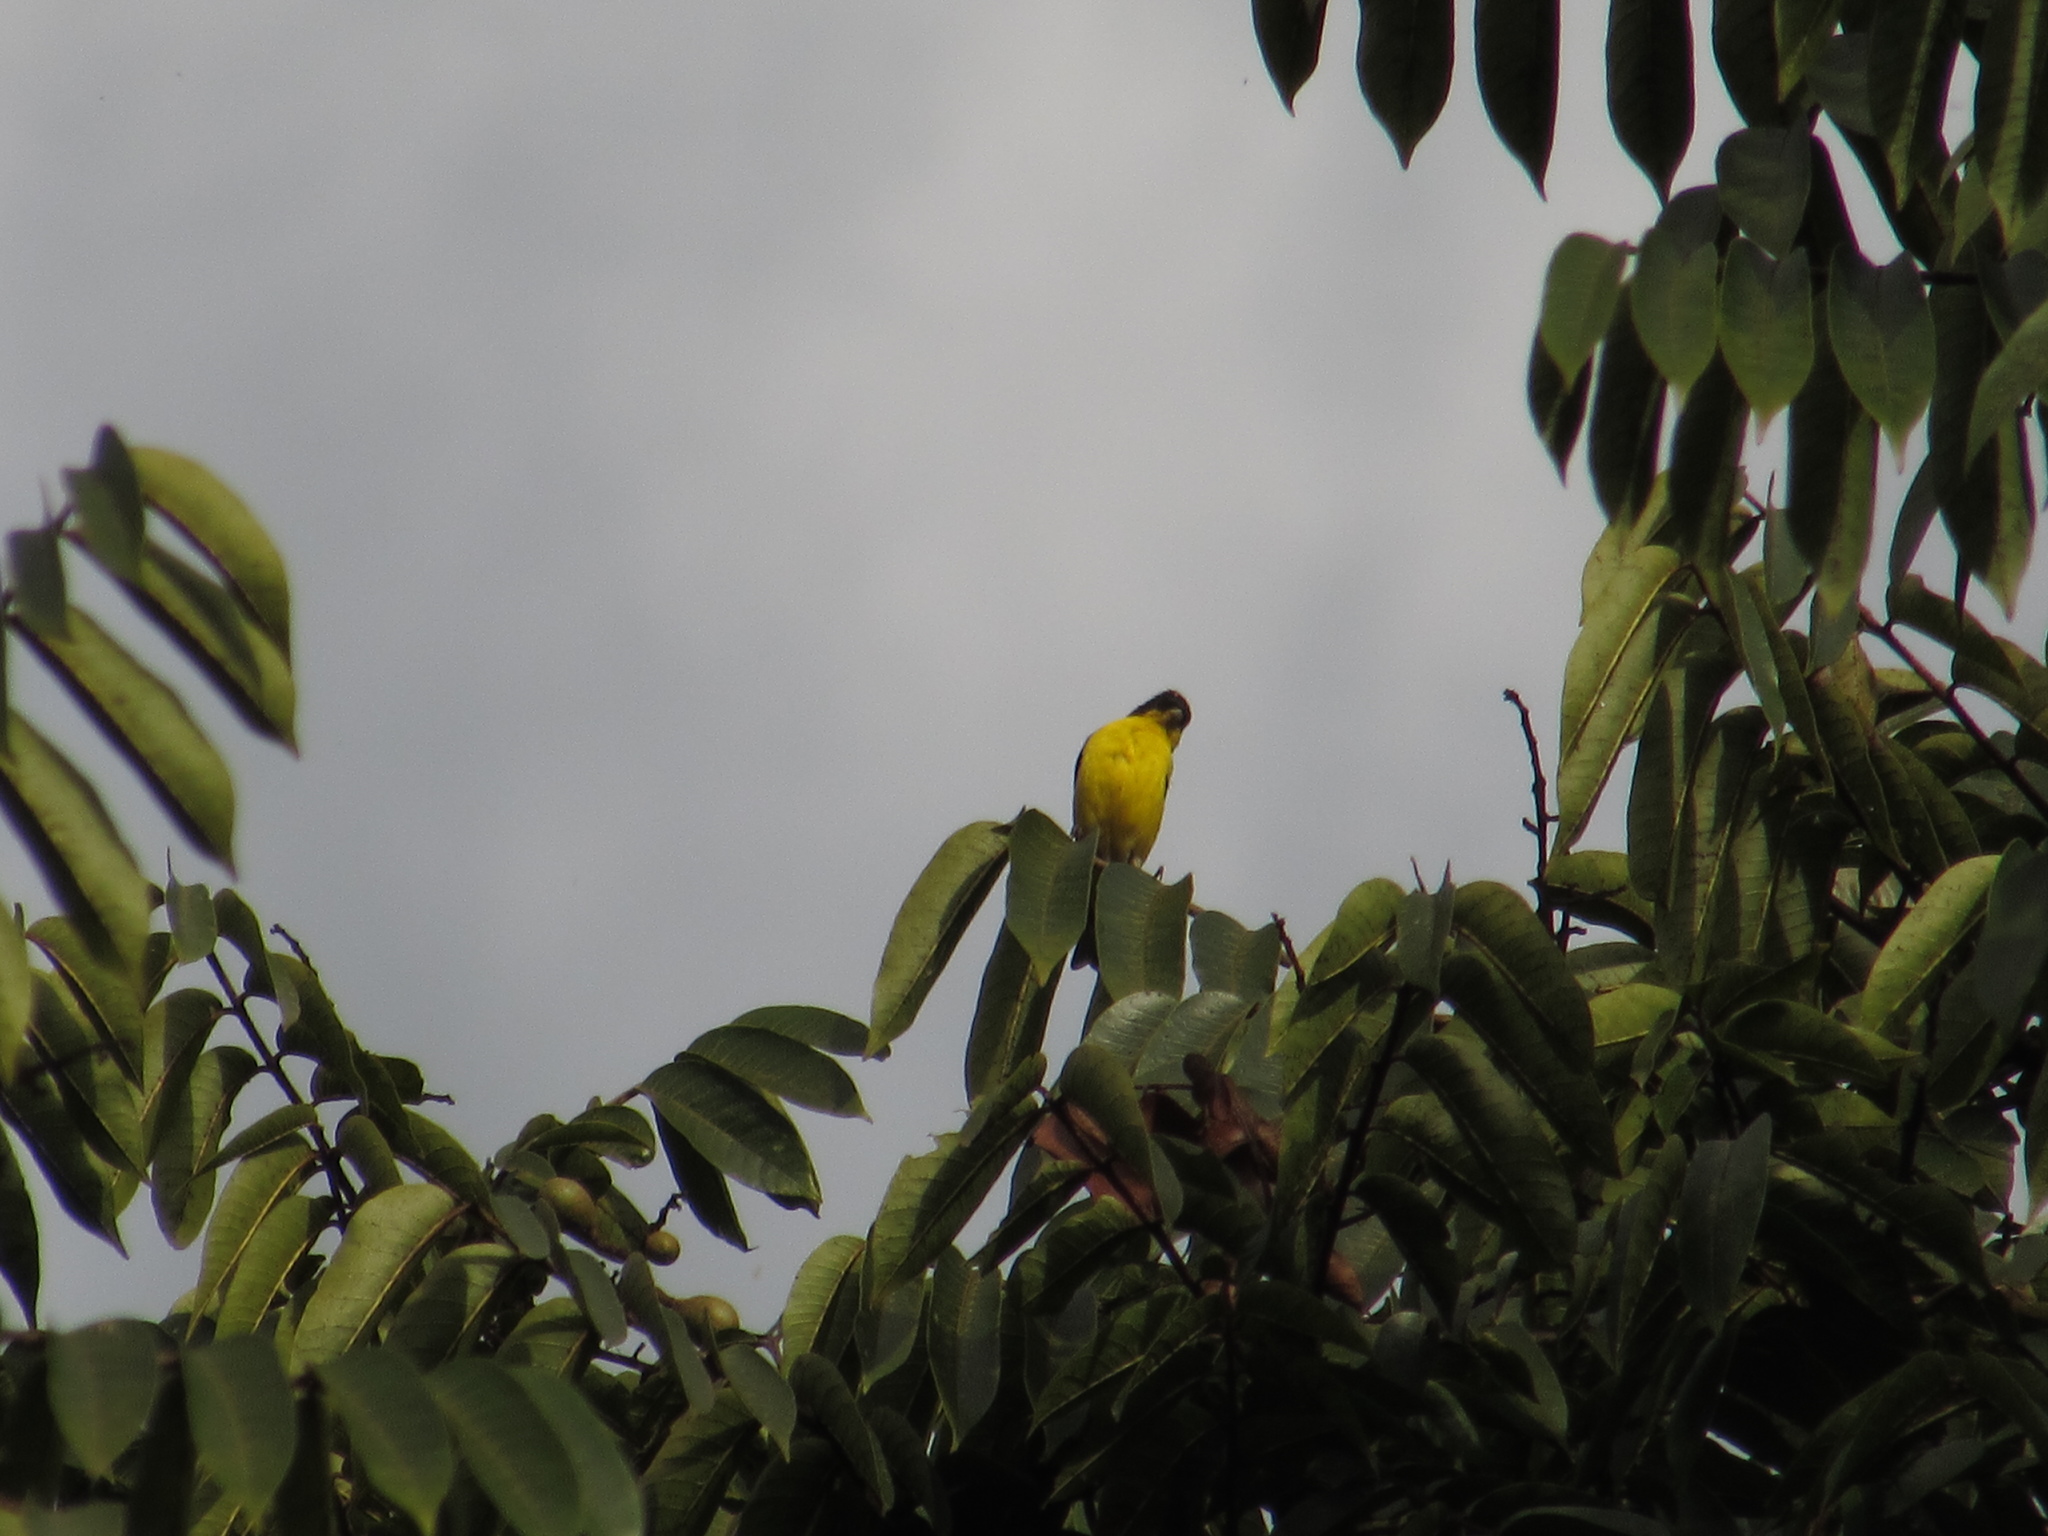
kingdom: Animalia
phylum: Chordata
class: Aves
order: Passeriformes
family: Fringillidae
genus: Spinus
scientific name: Spinus psaltria
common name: Lesser goldfinch
